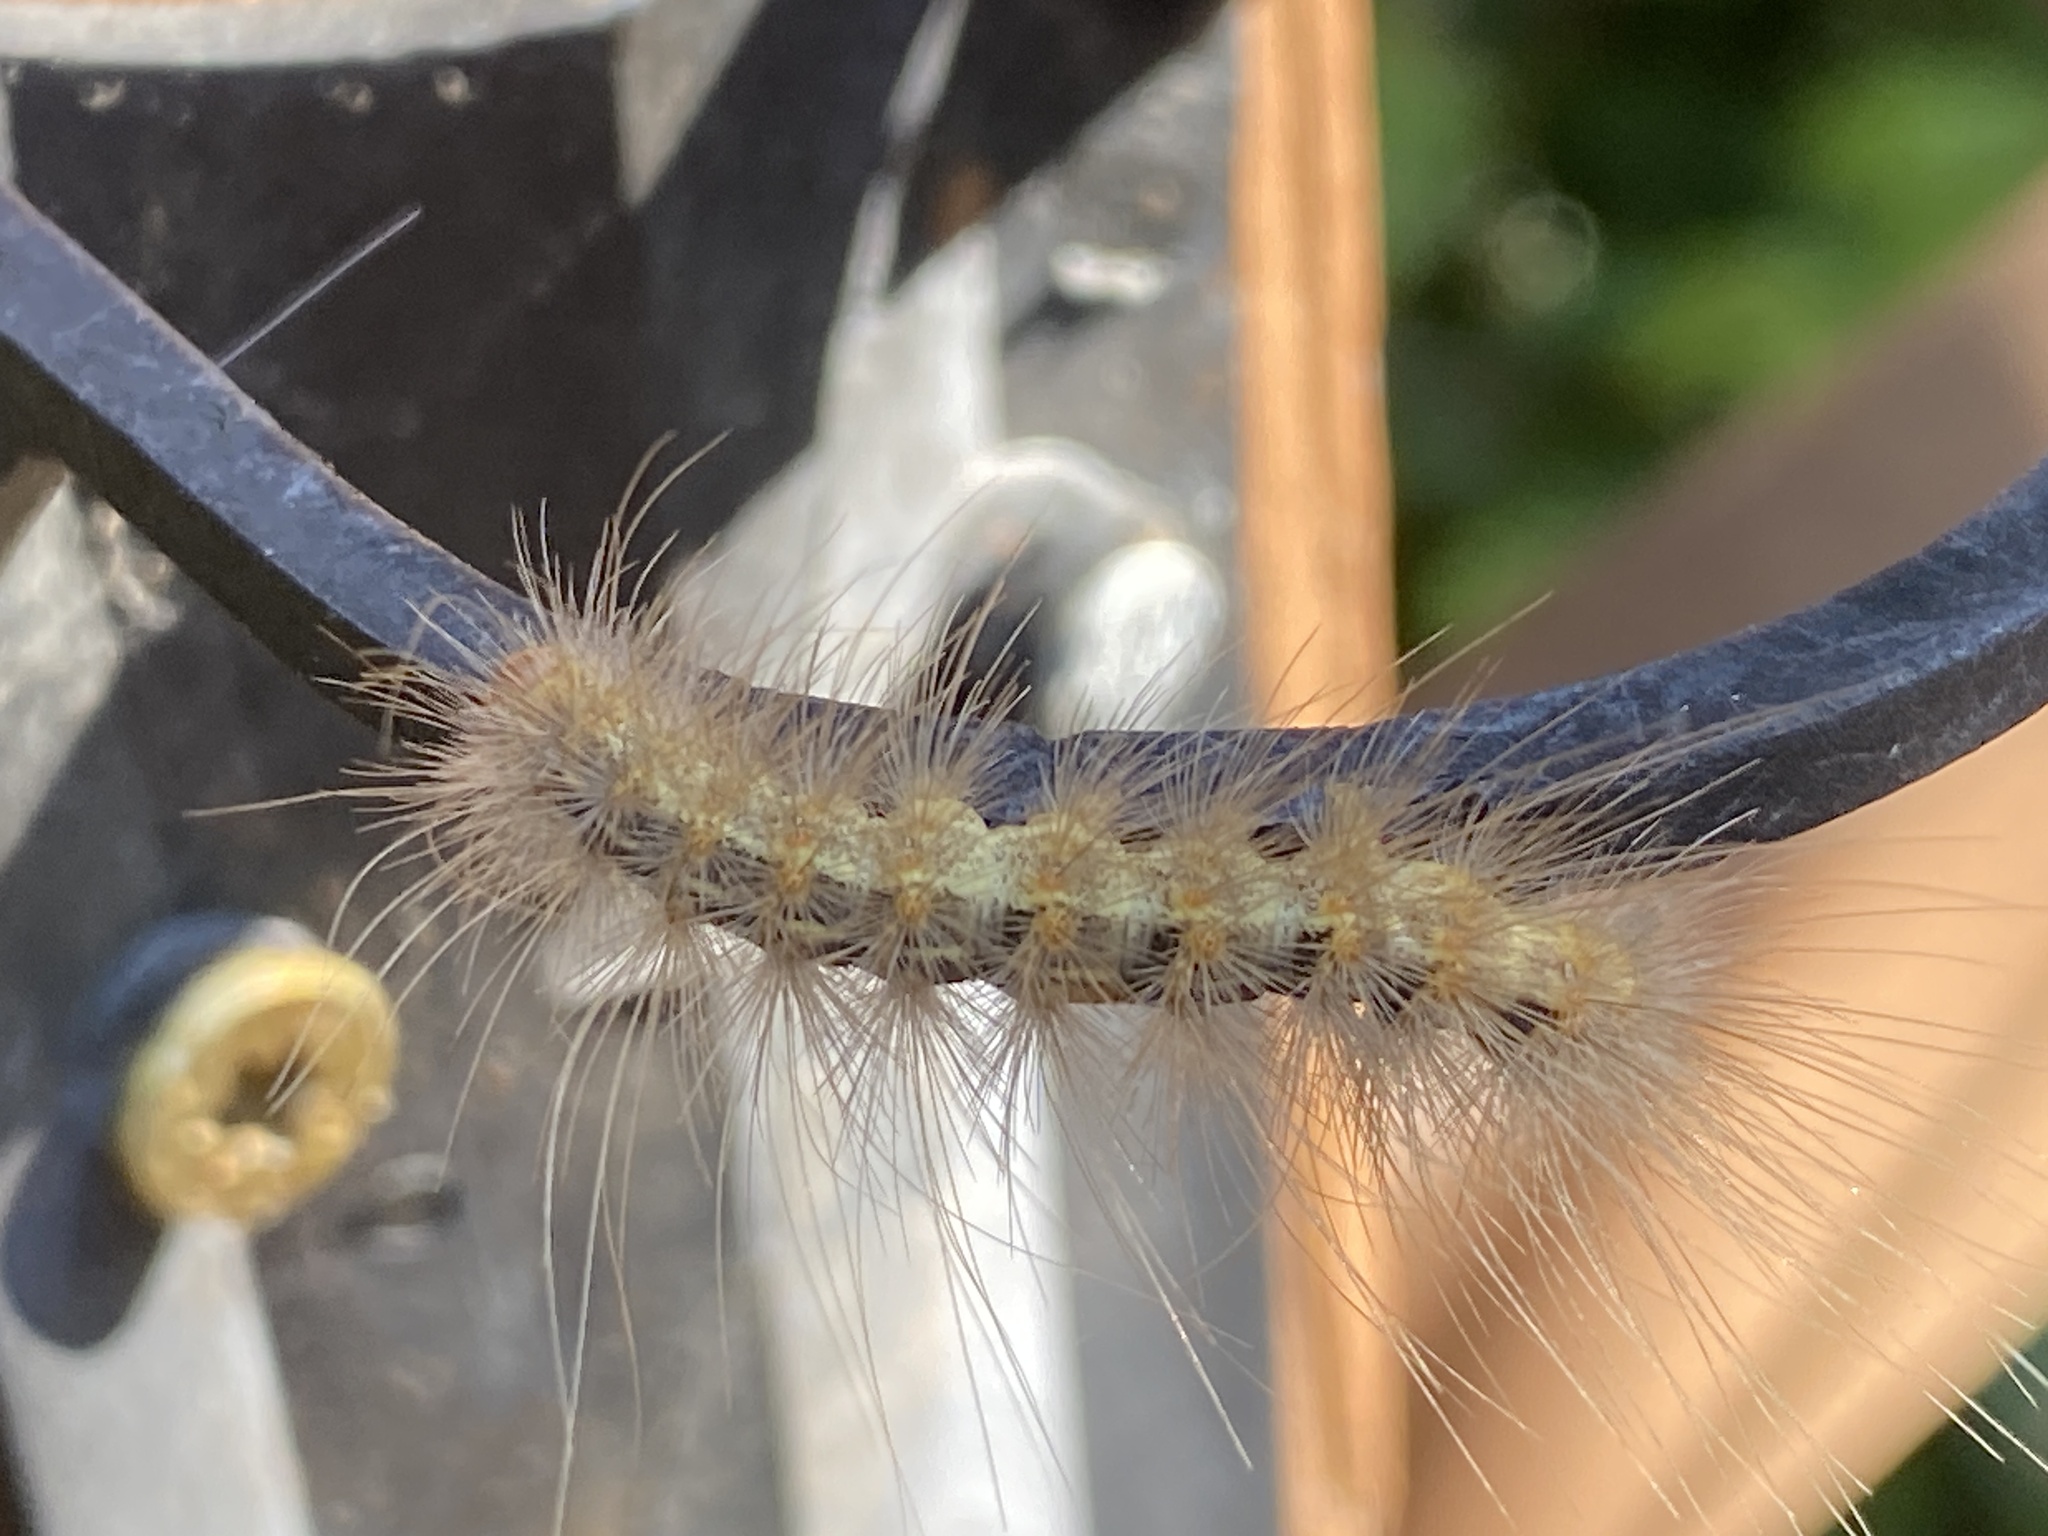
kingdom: Animalia
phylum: Arthropoda
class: Insecta
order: Lepidoptera
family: Erebidae
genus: Hyphantria
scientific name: Hyphantria cunea
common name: American white moth
